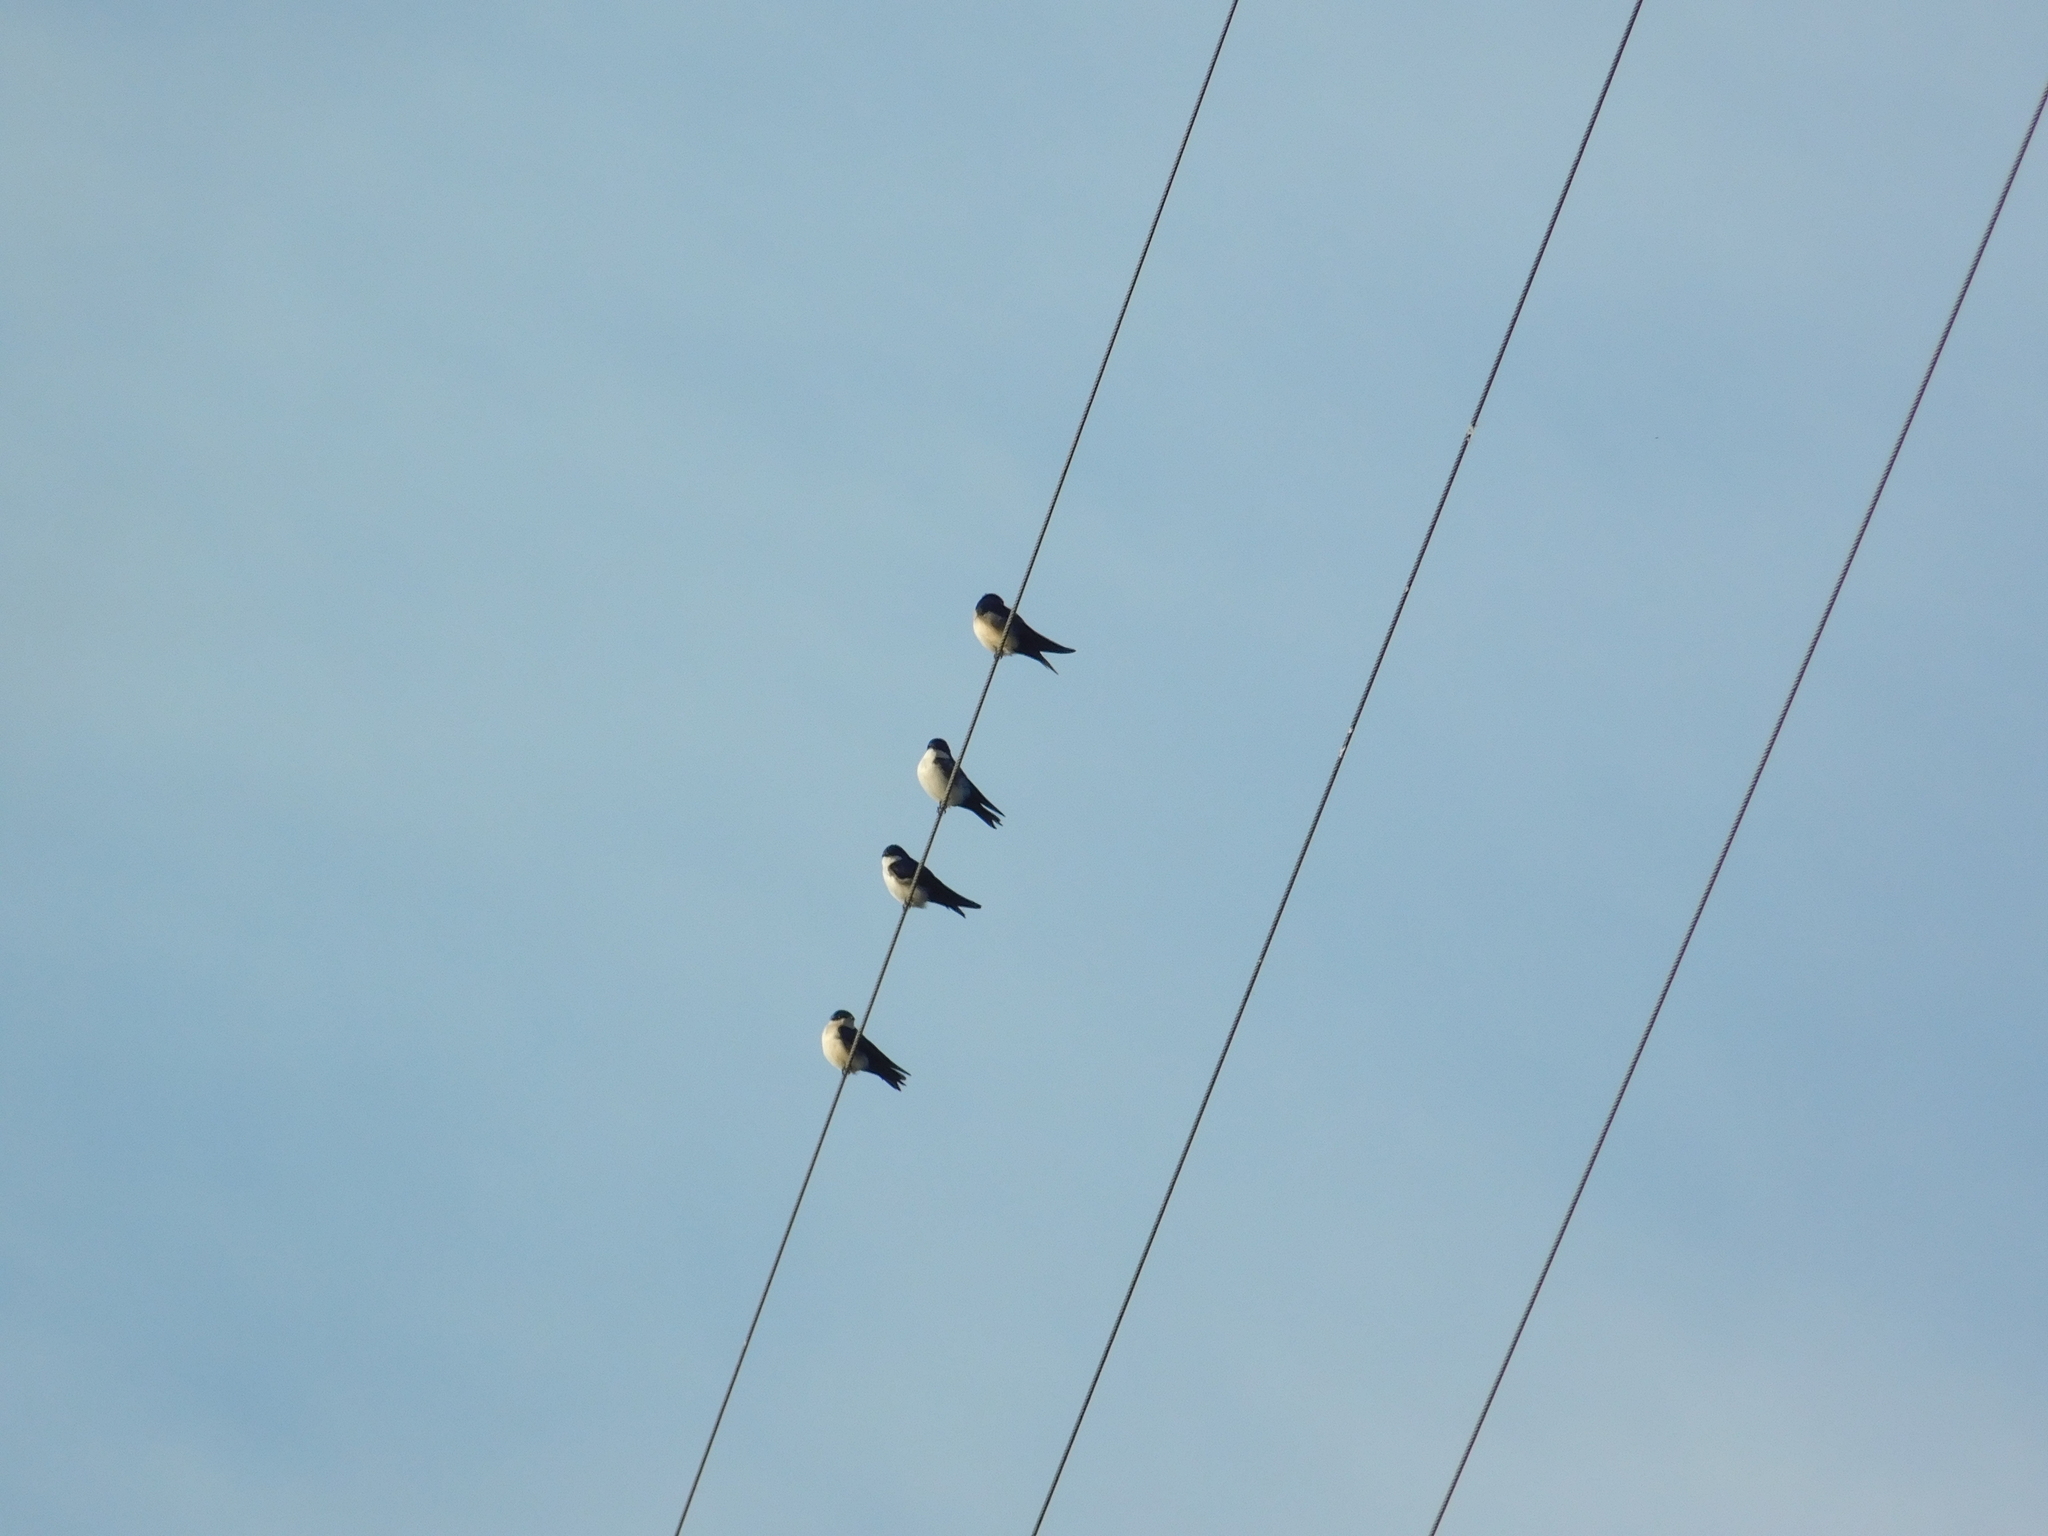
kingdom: Animalia
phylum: Chordata
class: Aves
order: Passeriformes
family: Hirundinidae
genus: Notiochelidon
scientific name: Notiochelidon cyanoleuca
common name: Blue-and-white swallow
